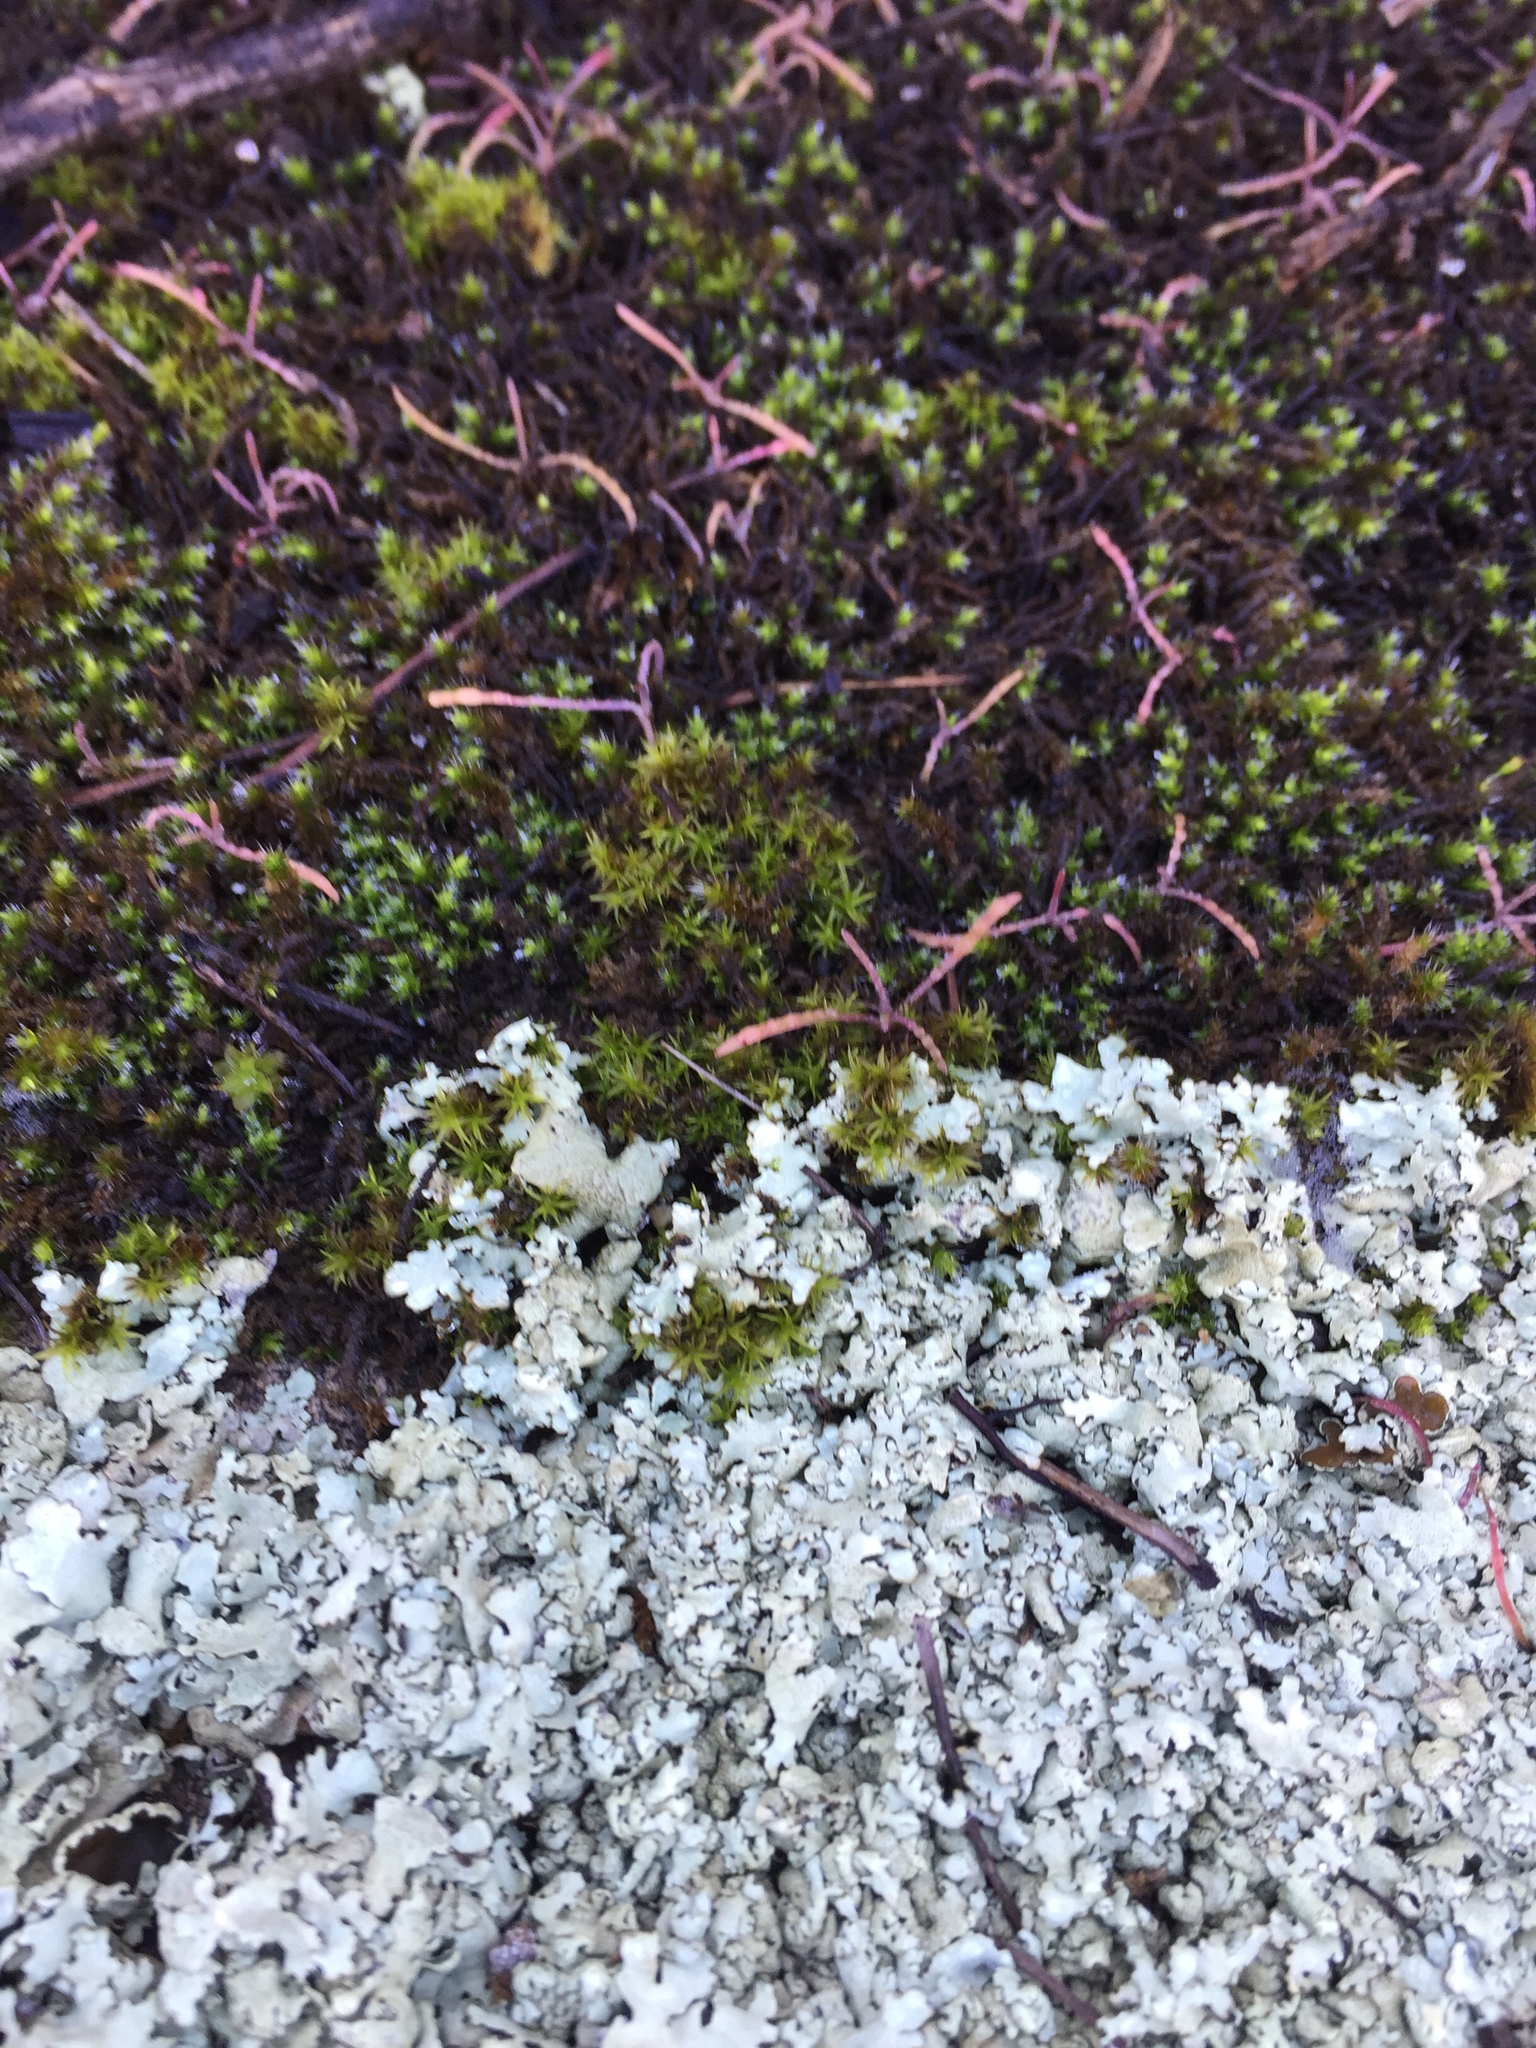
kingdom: Fungi
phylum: Ascomycota
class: Lecanoromycetes
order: Lecanorales
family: Parmeliaceae
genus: Xanthoparmelia
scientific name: Xanthoparmelia cumberlandia
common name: Cumberland rock shield
